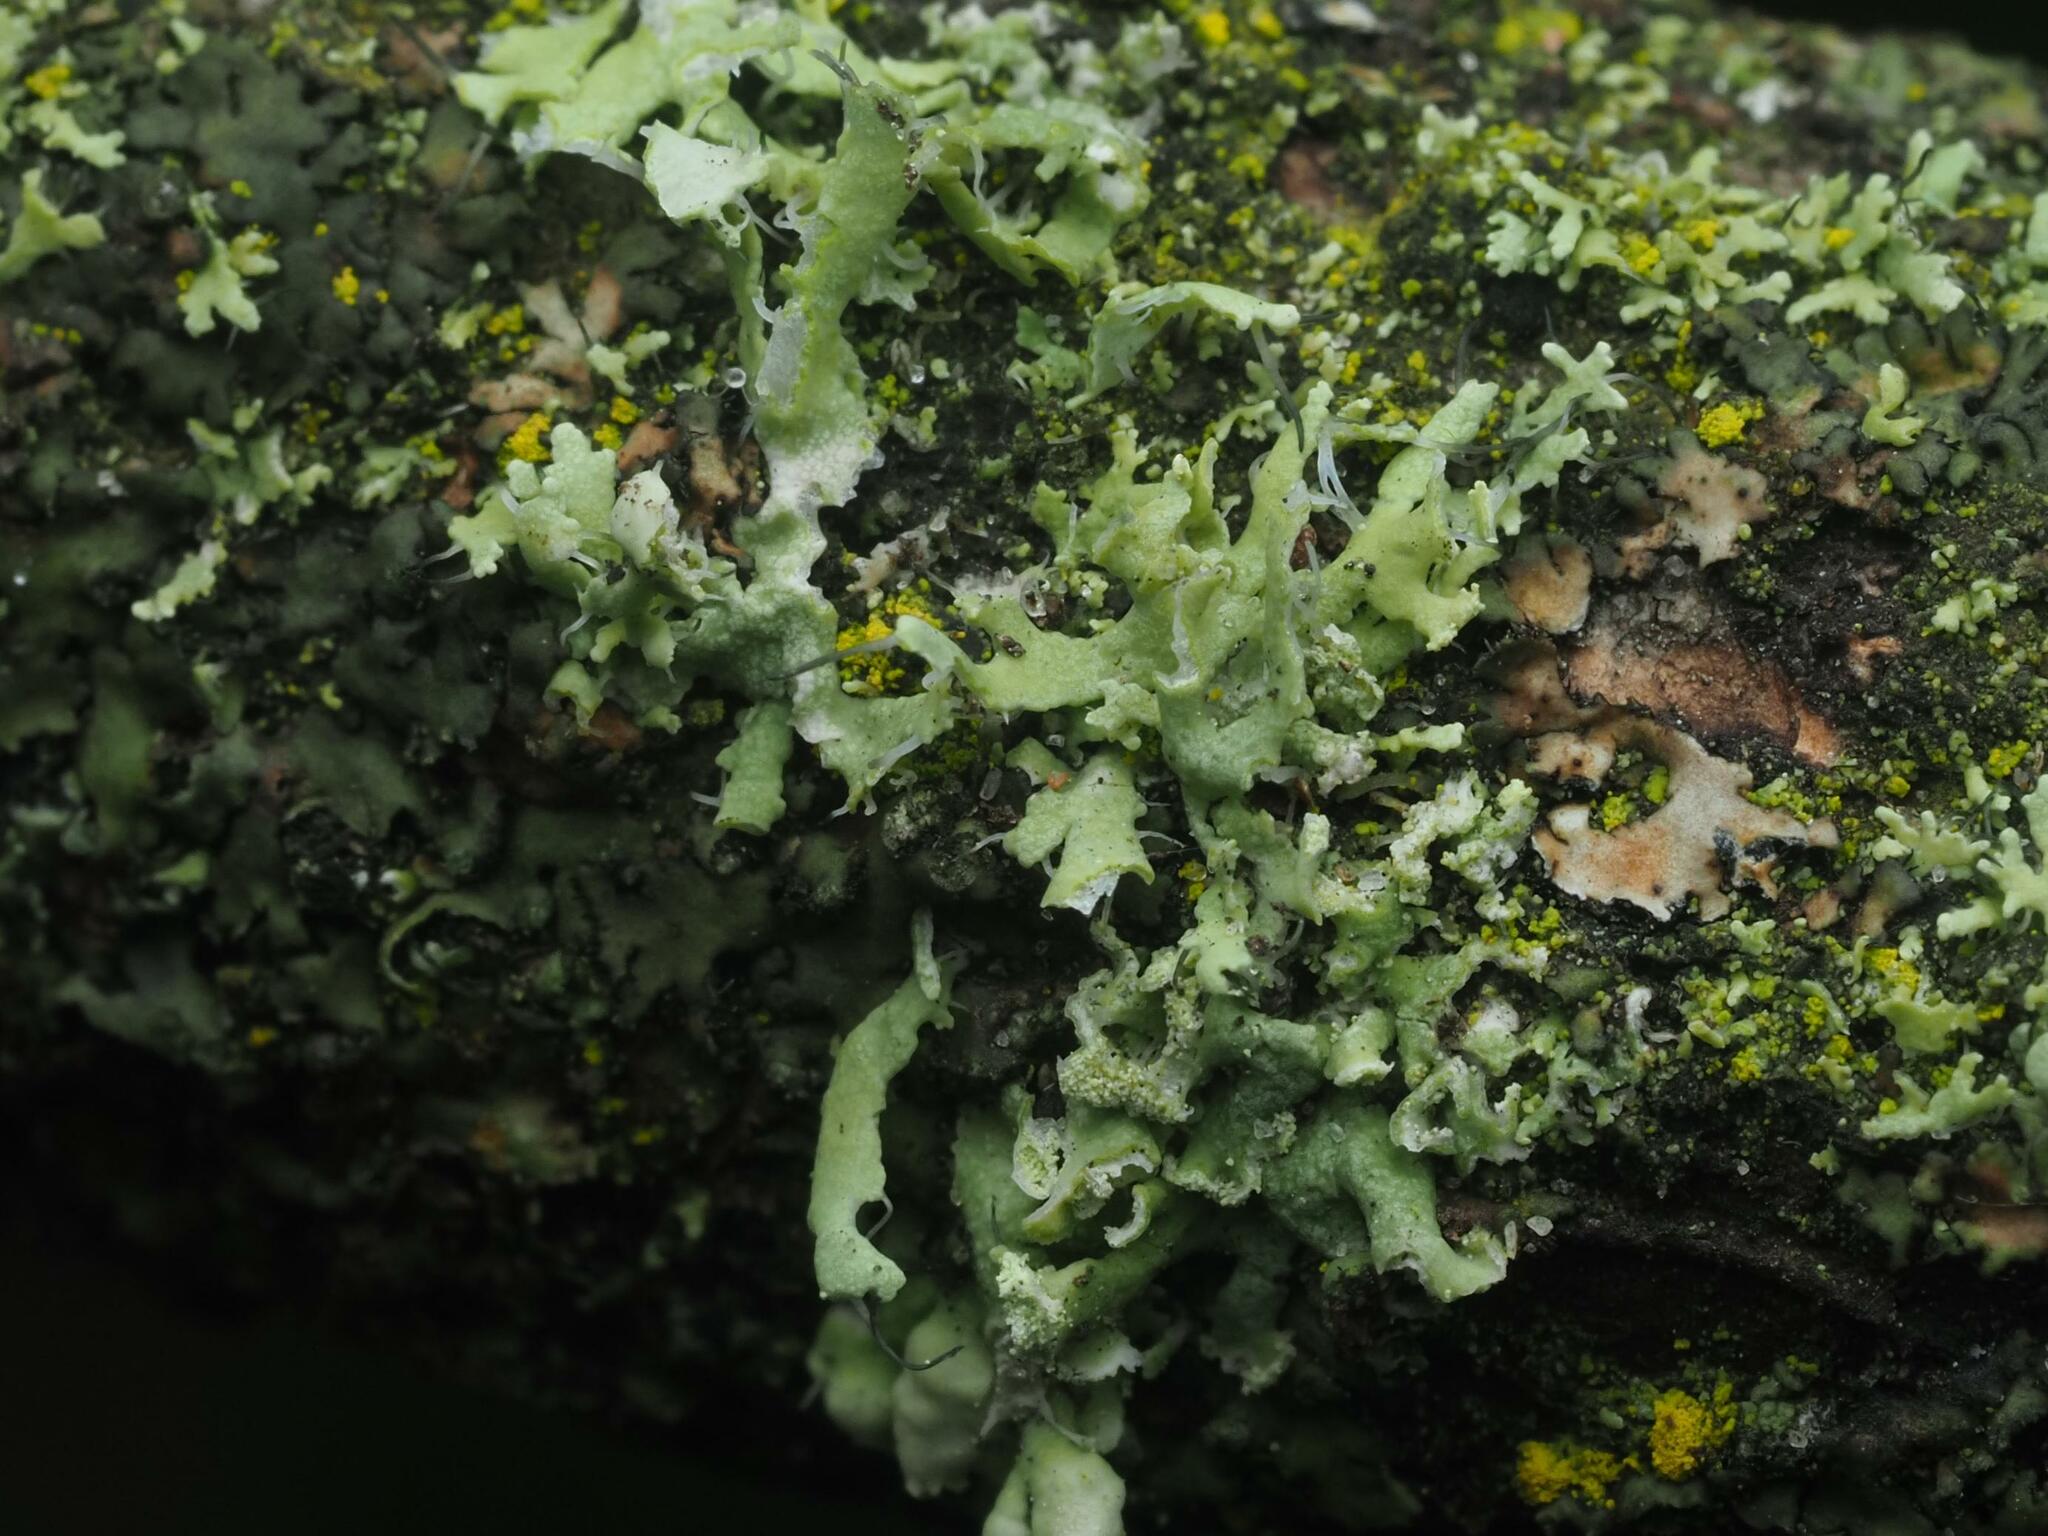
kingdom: Fungi
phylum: Ascomycota
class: Lecanoromycetes
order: Caliciales
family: Physciaceae
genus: Physcia
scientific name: Physcia adscendens
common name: Hooded rosette lichen
